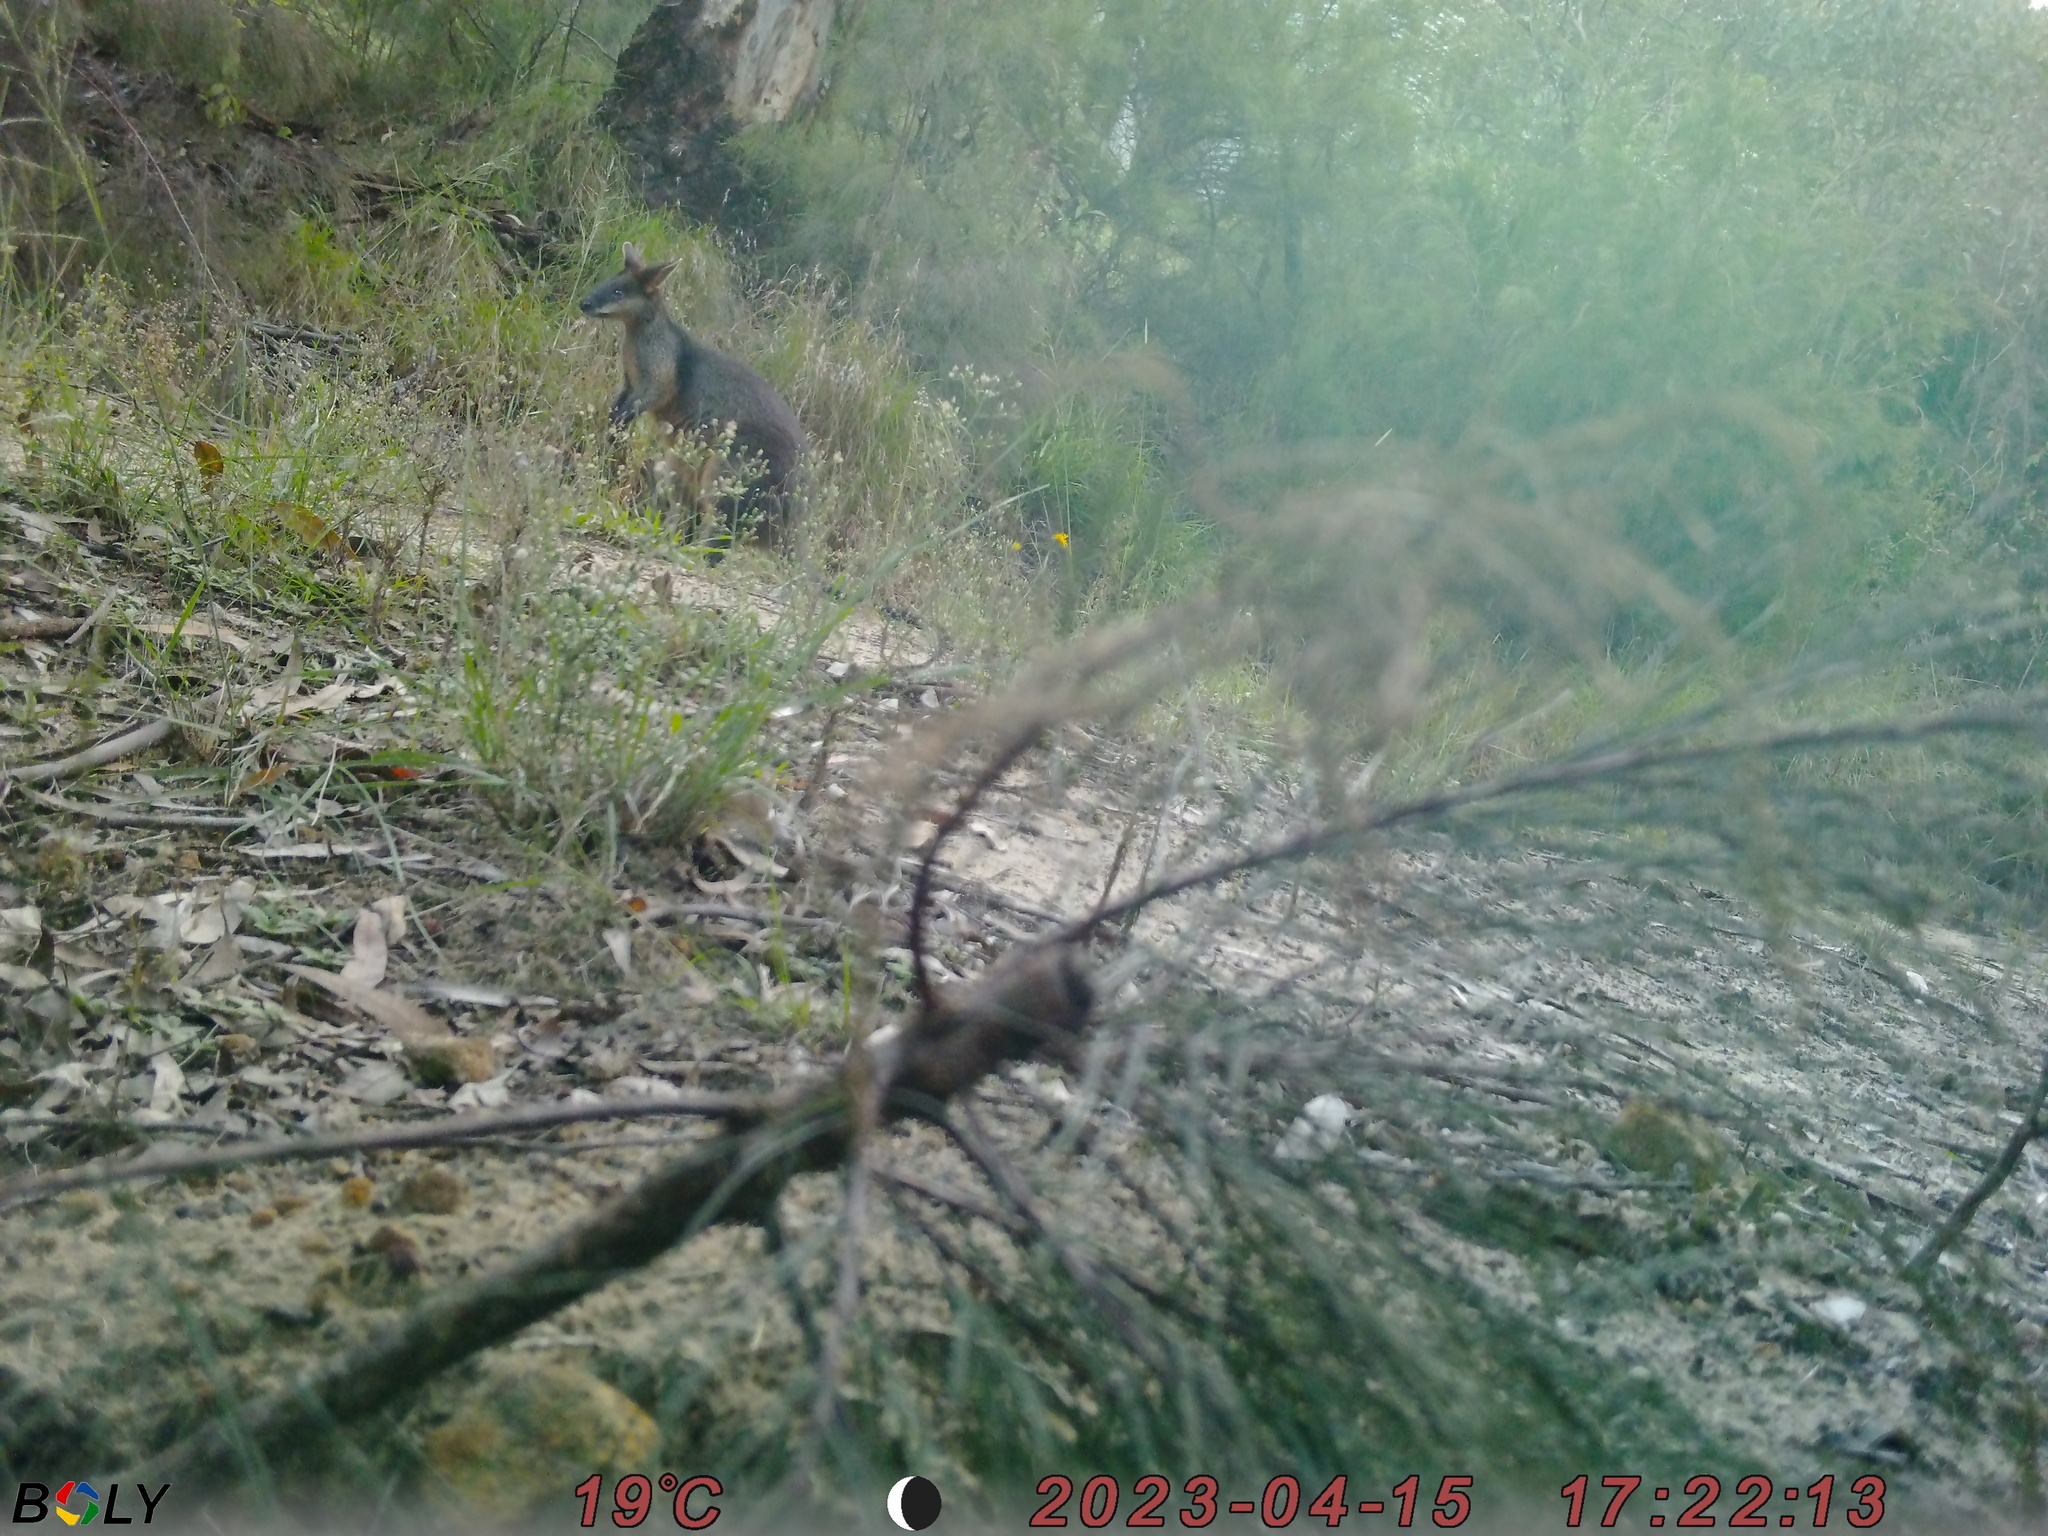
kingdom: Animalia
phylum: Chordata
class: Mammalia
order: Diprotodontia
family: Macropodidae
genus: Wallabia
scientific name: Wallabia bicolor
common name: Swamp wallaby
